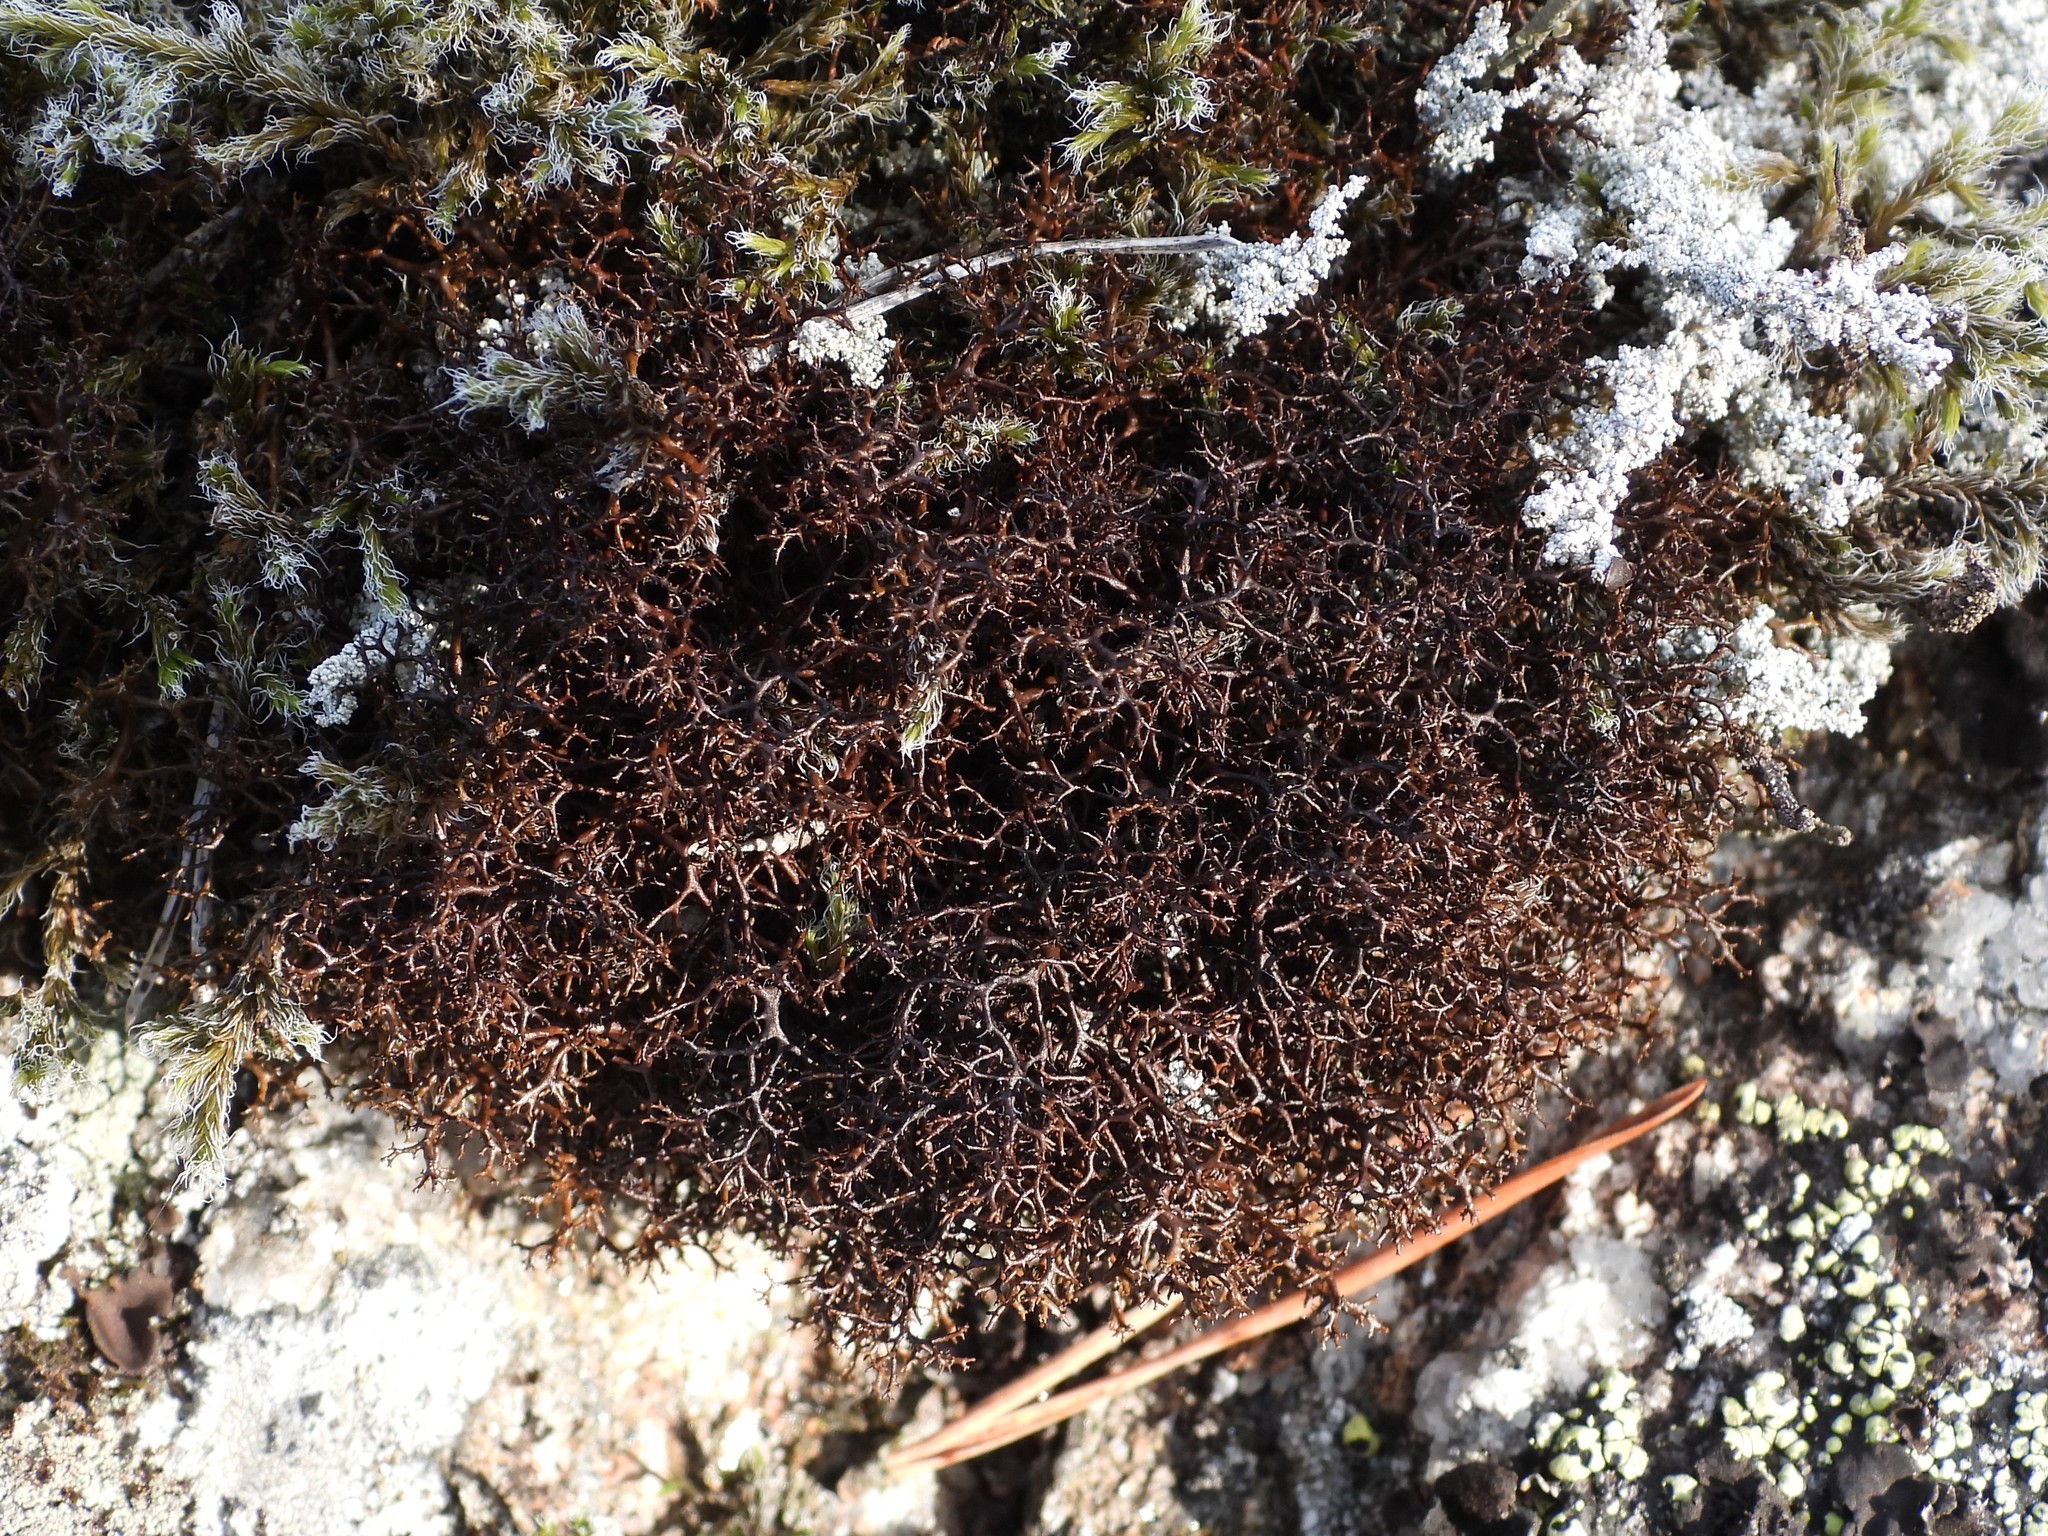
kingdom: Fungi
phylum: Ascomycota
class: Lecanoromycetes
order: Lecanorales
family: Parmeliaceae
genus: Cetraria
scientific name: Cetraria muricata
